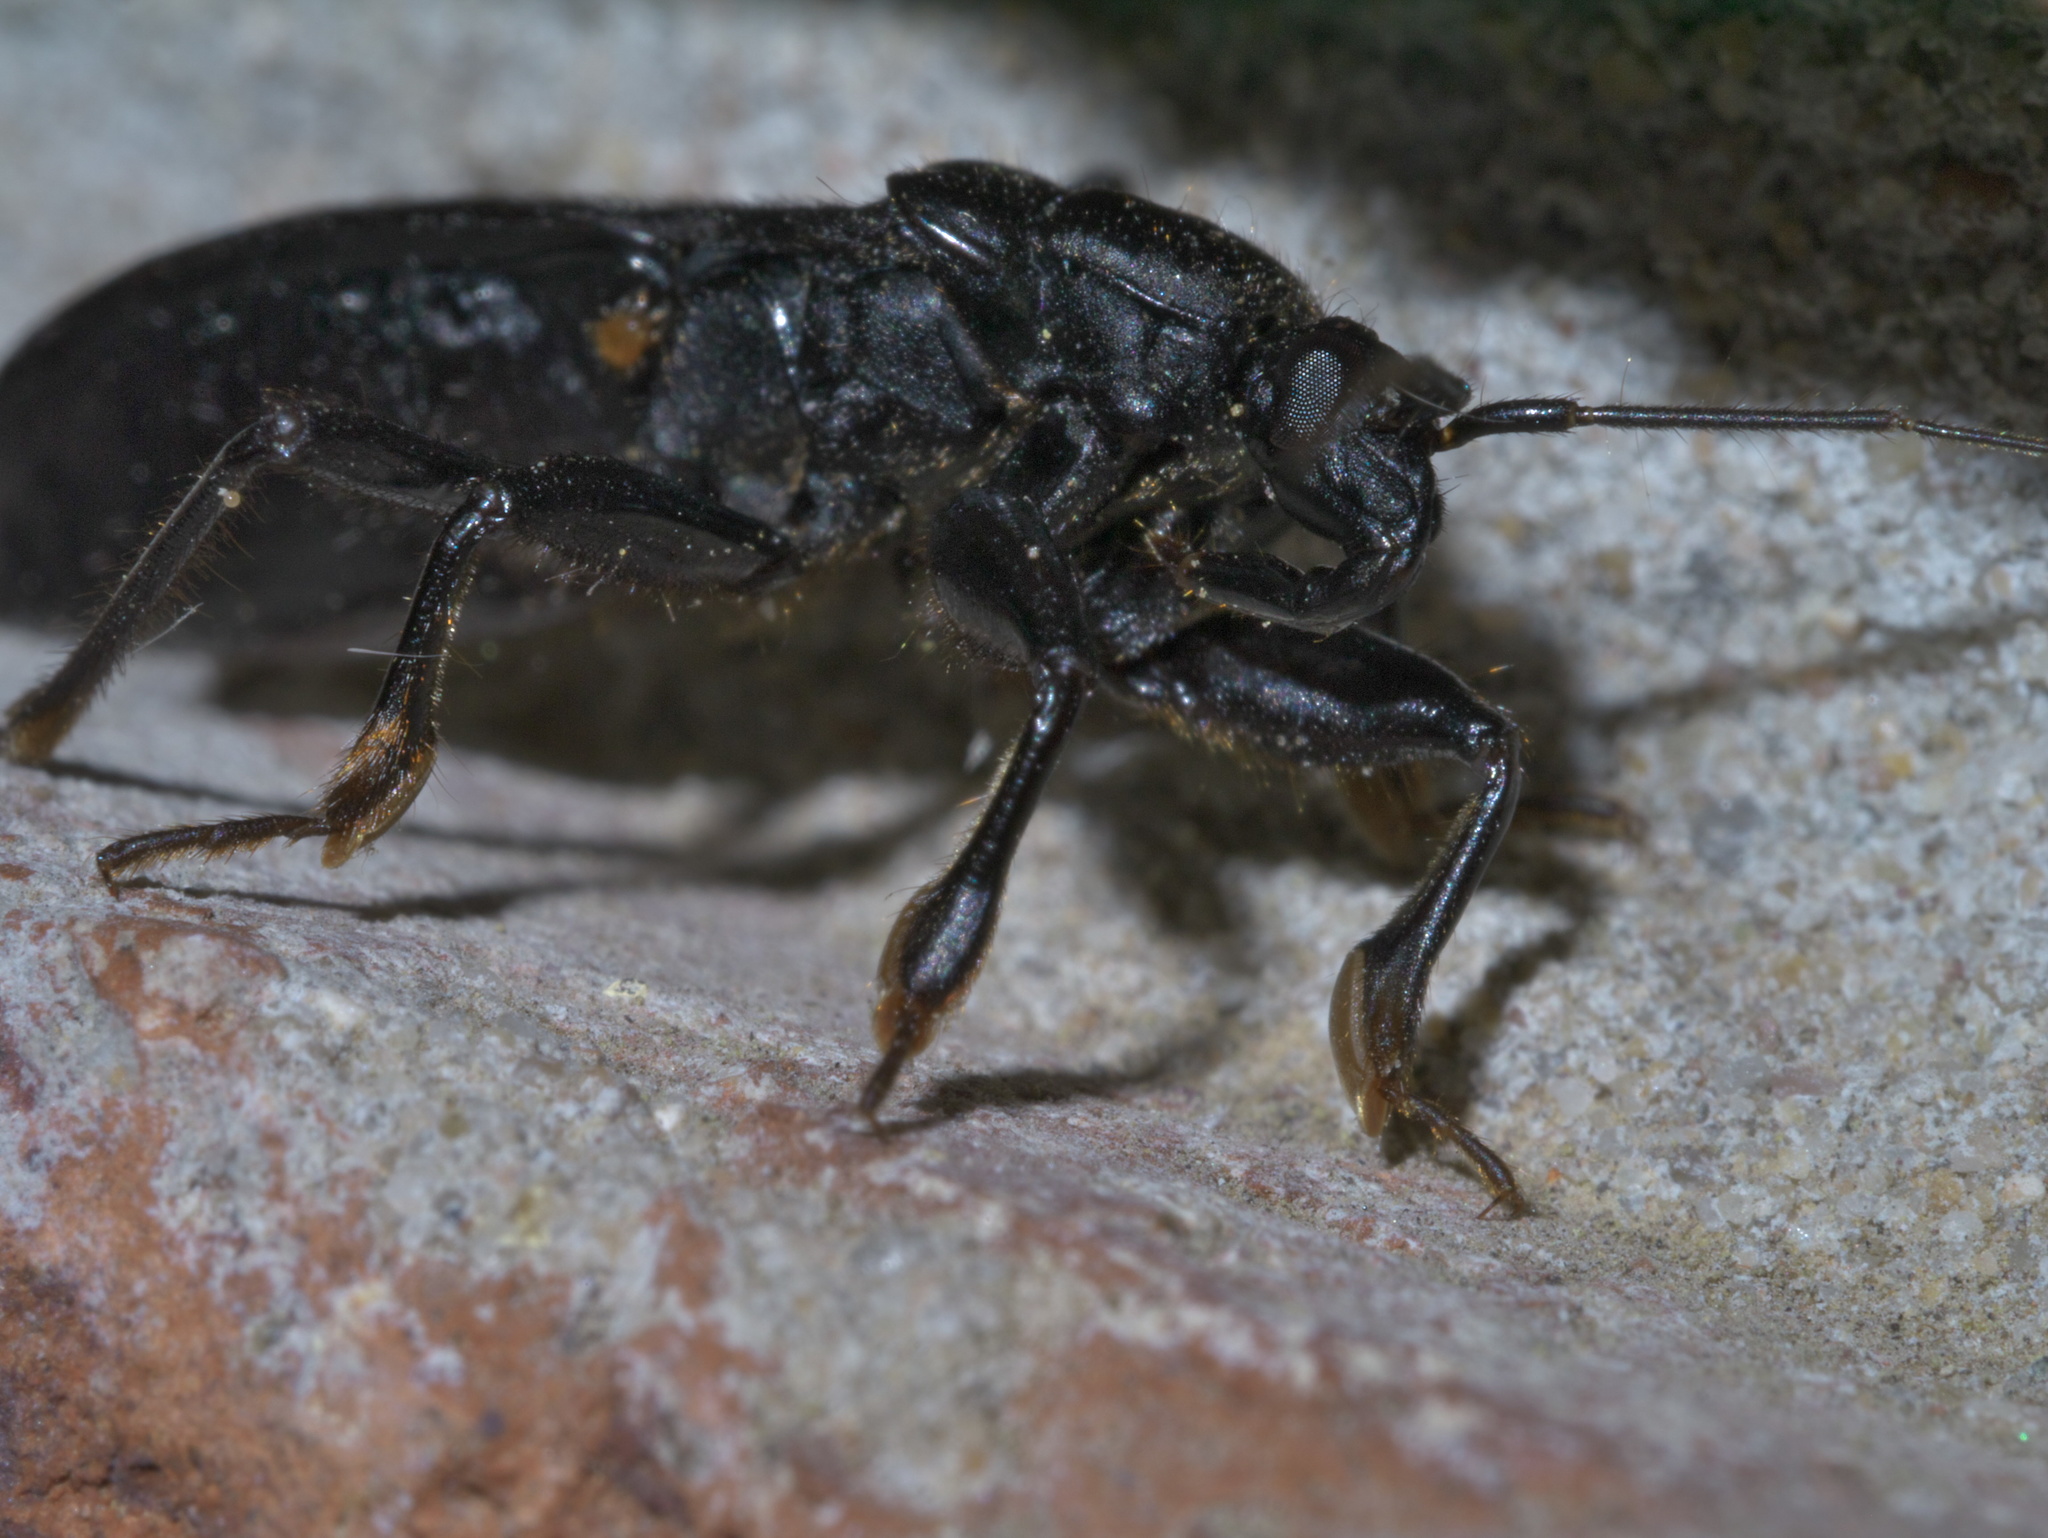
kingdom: Animalia
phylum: Arthropoda
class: Insecta
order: Hemiptera
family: Reduviidae
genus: Melanolestes
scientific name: Melanolestes picipes
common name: Assassin bug
